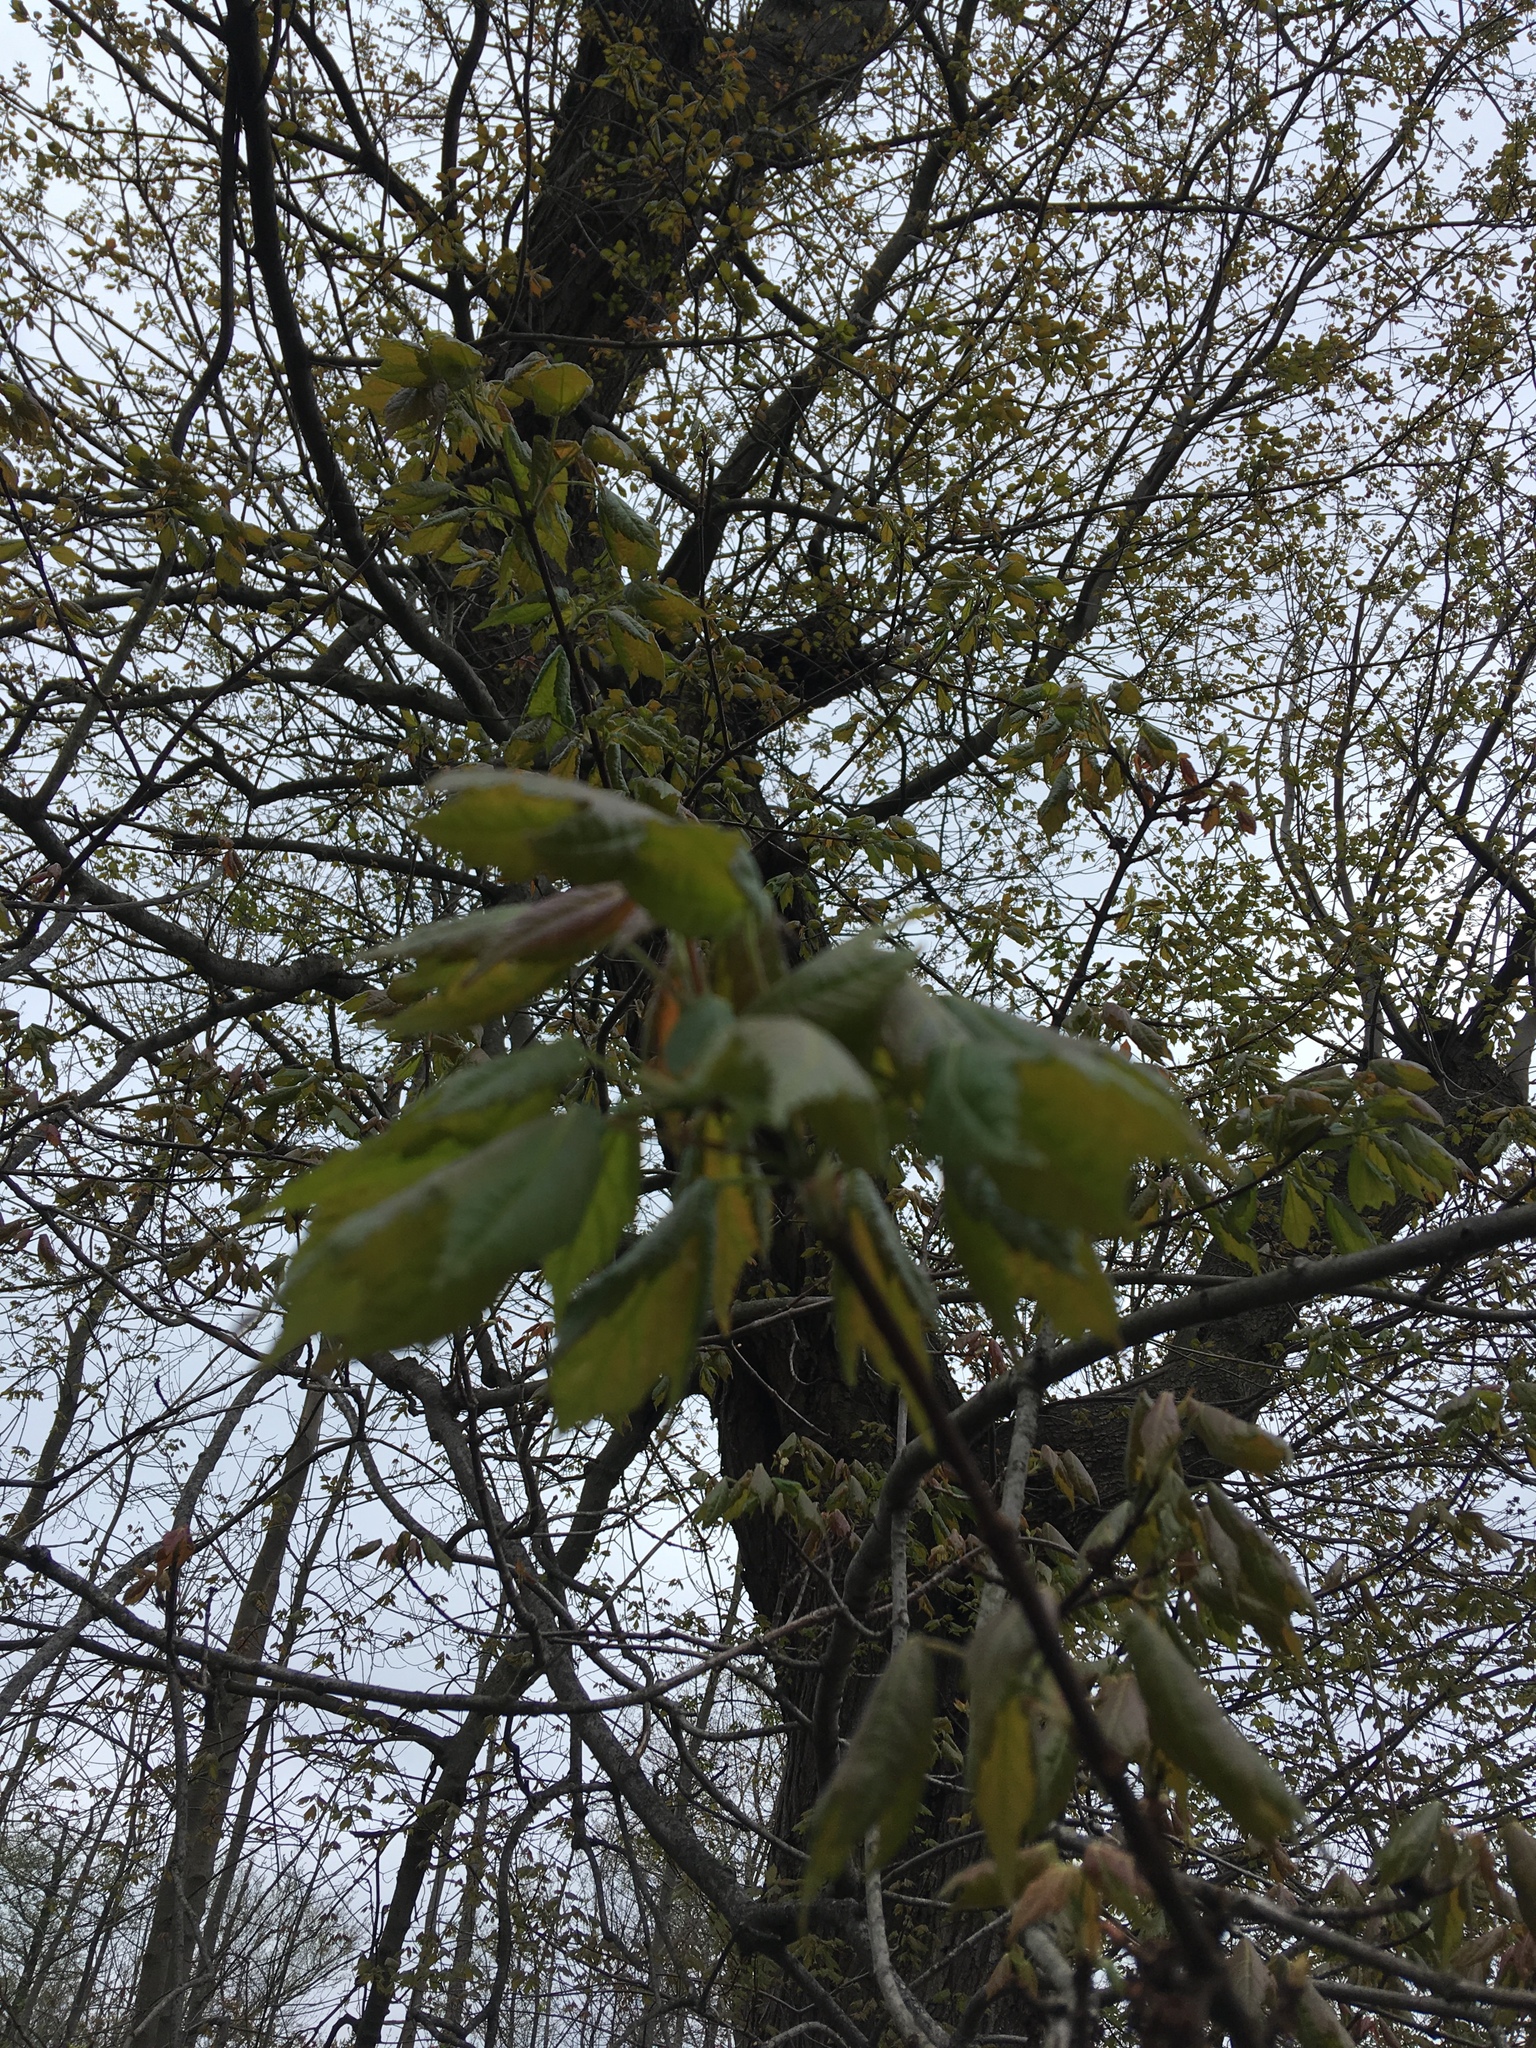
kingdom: Plantae
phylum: Tracheophyta
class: Magnoliopsida
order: Sapindales
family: Sapindaceae
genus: Acer
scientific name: Acer rubrum
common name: Red maple
